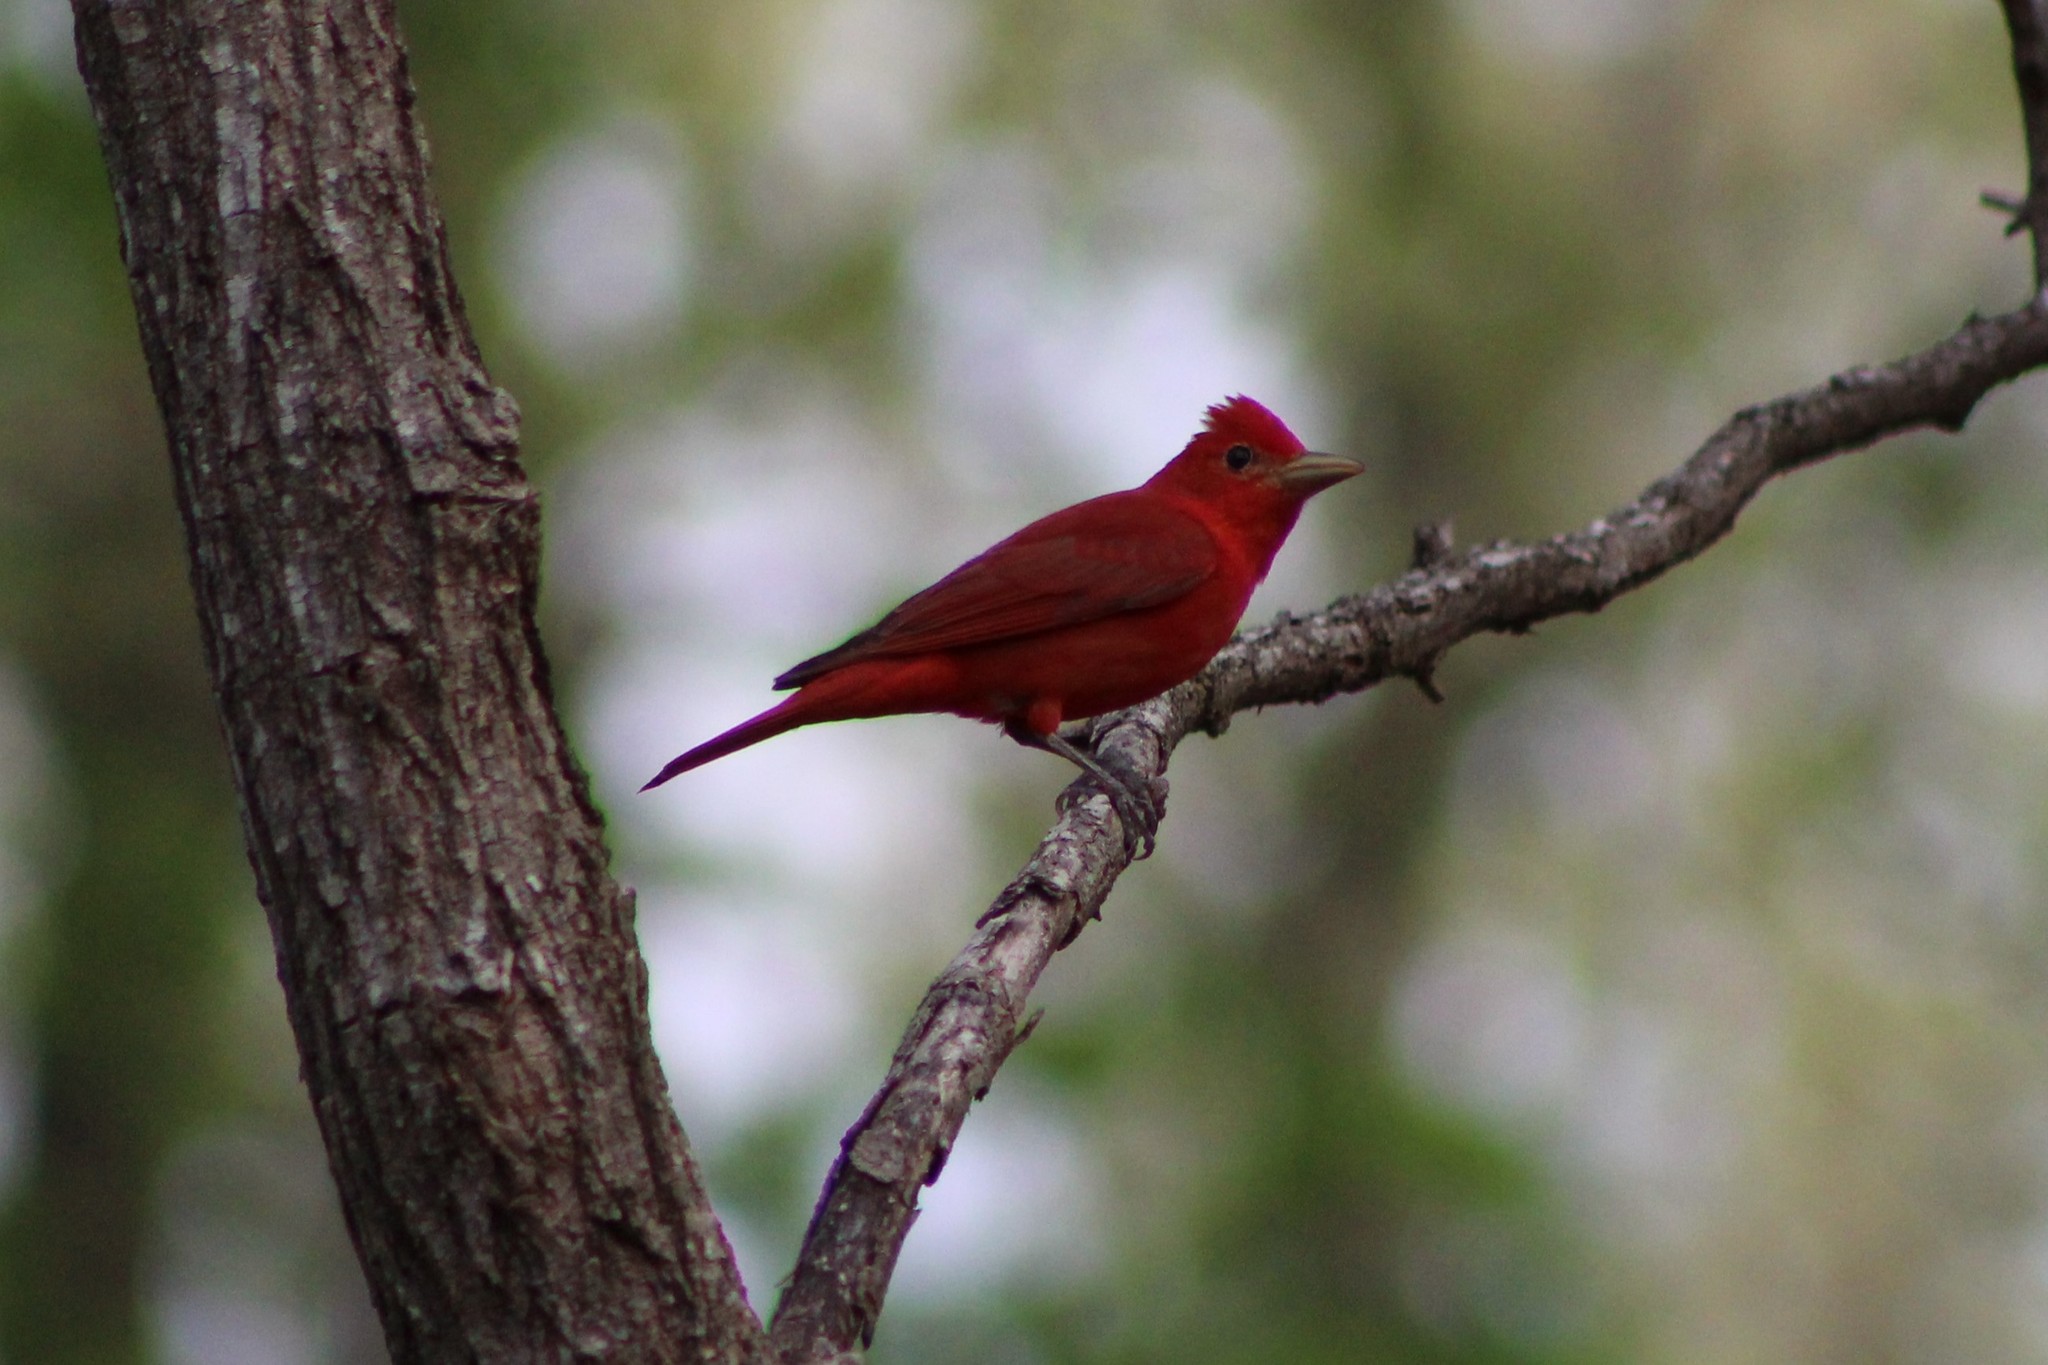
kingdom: Animalia
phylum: Chordata
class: Aves
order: Passeriformes
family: Cardinalidae
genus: Piranga
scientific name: Piranga rubra
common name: Summer tanager
